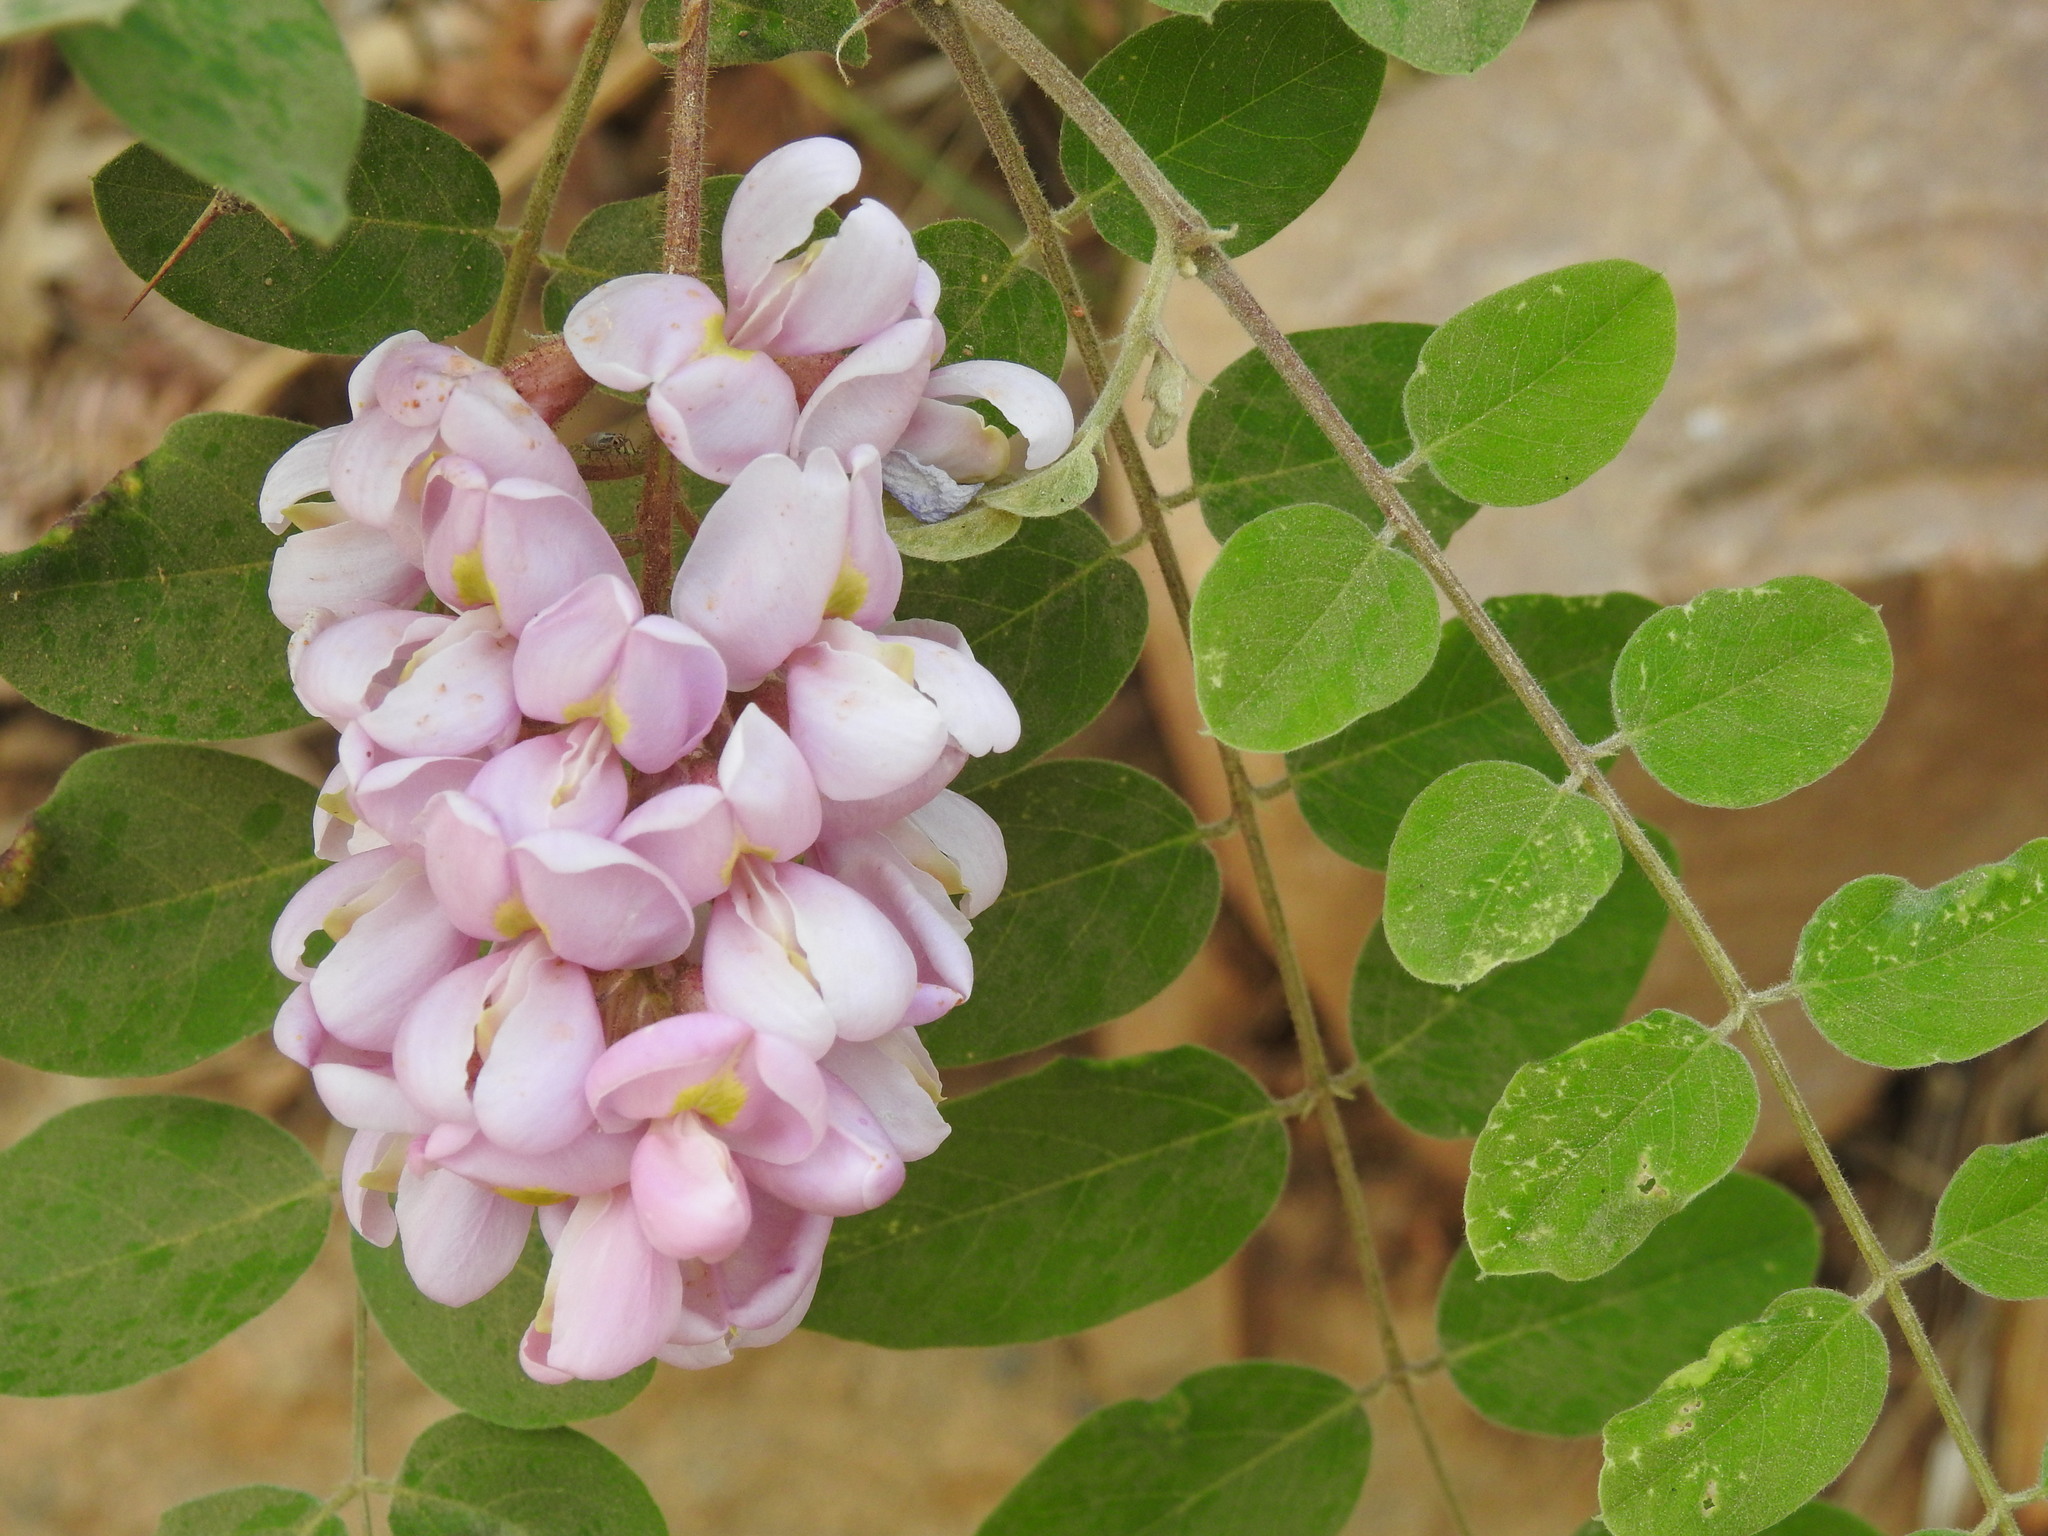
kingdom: Plantae
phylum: Tracheophyta
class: Magnoliopsida
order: Fabales
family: Fabaceae
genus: Robinia
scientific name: Robinia neomexicana
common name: New mexico locust
